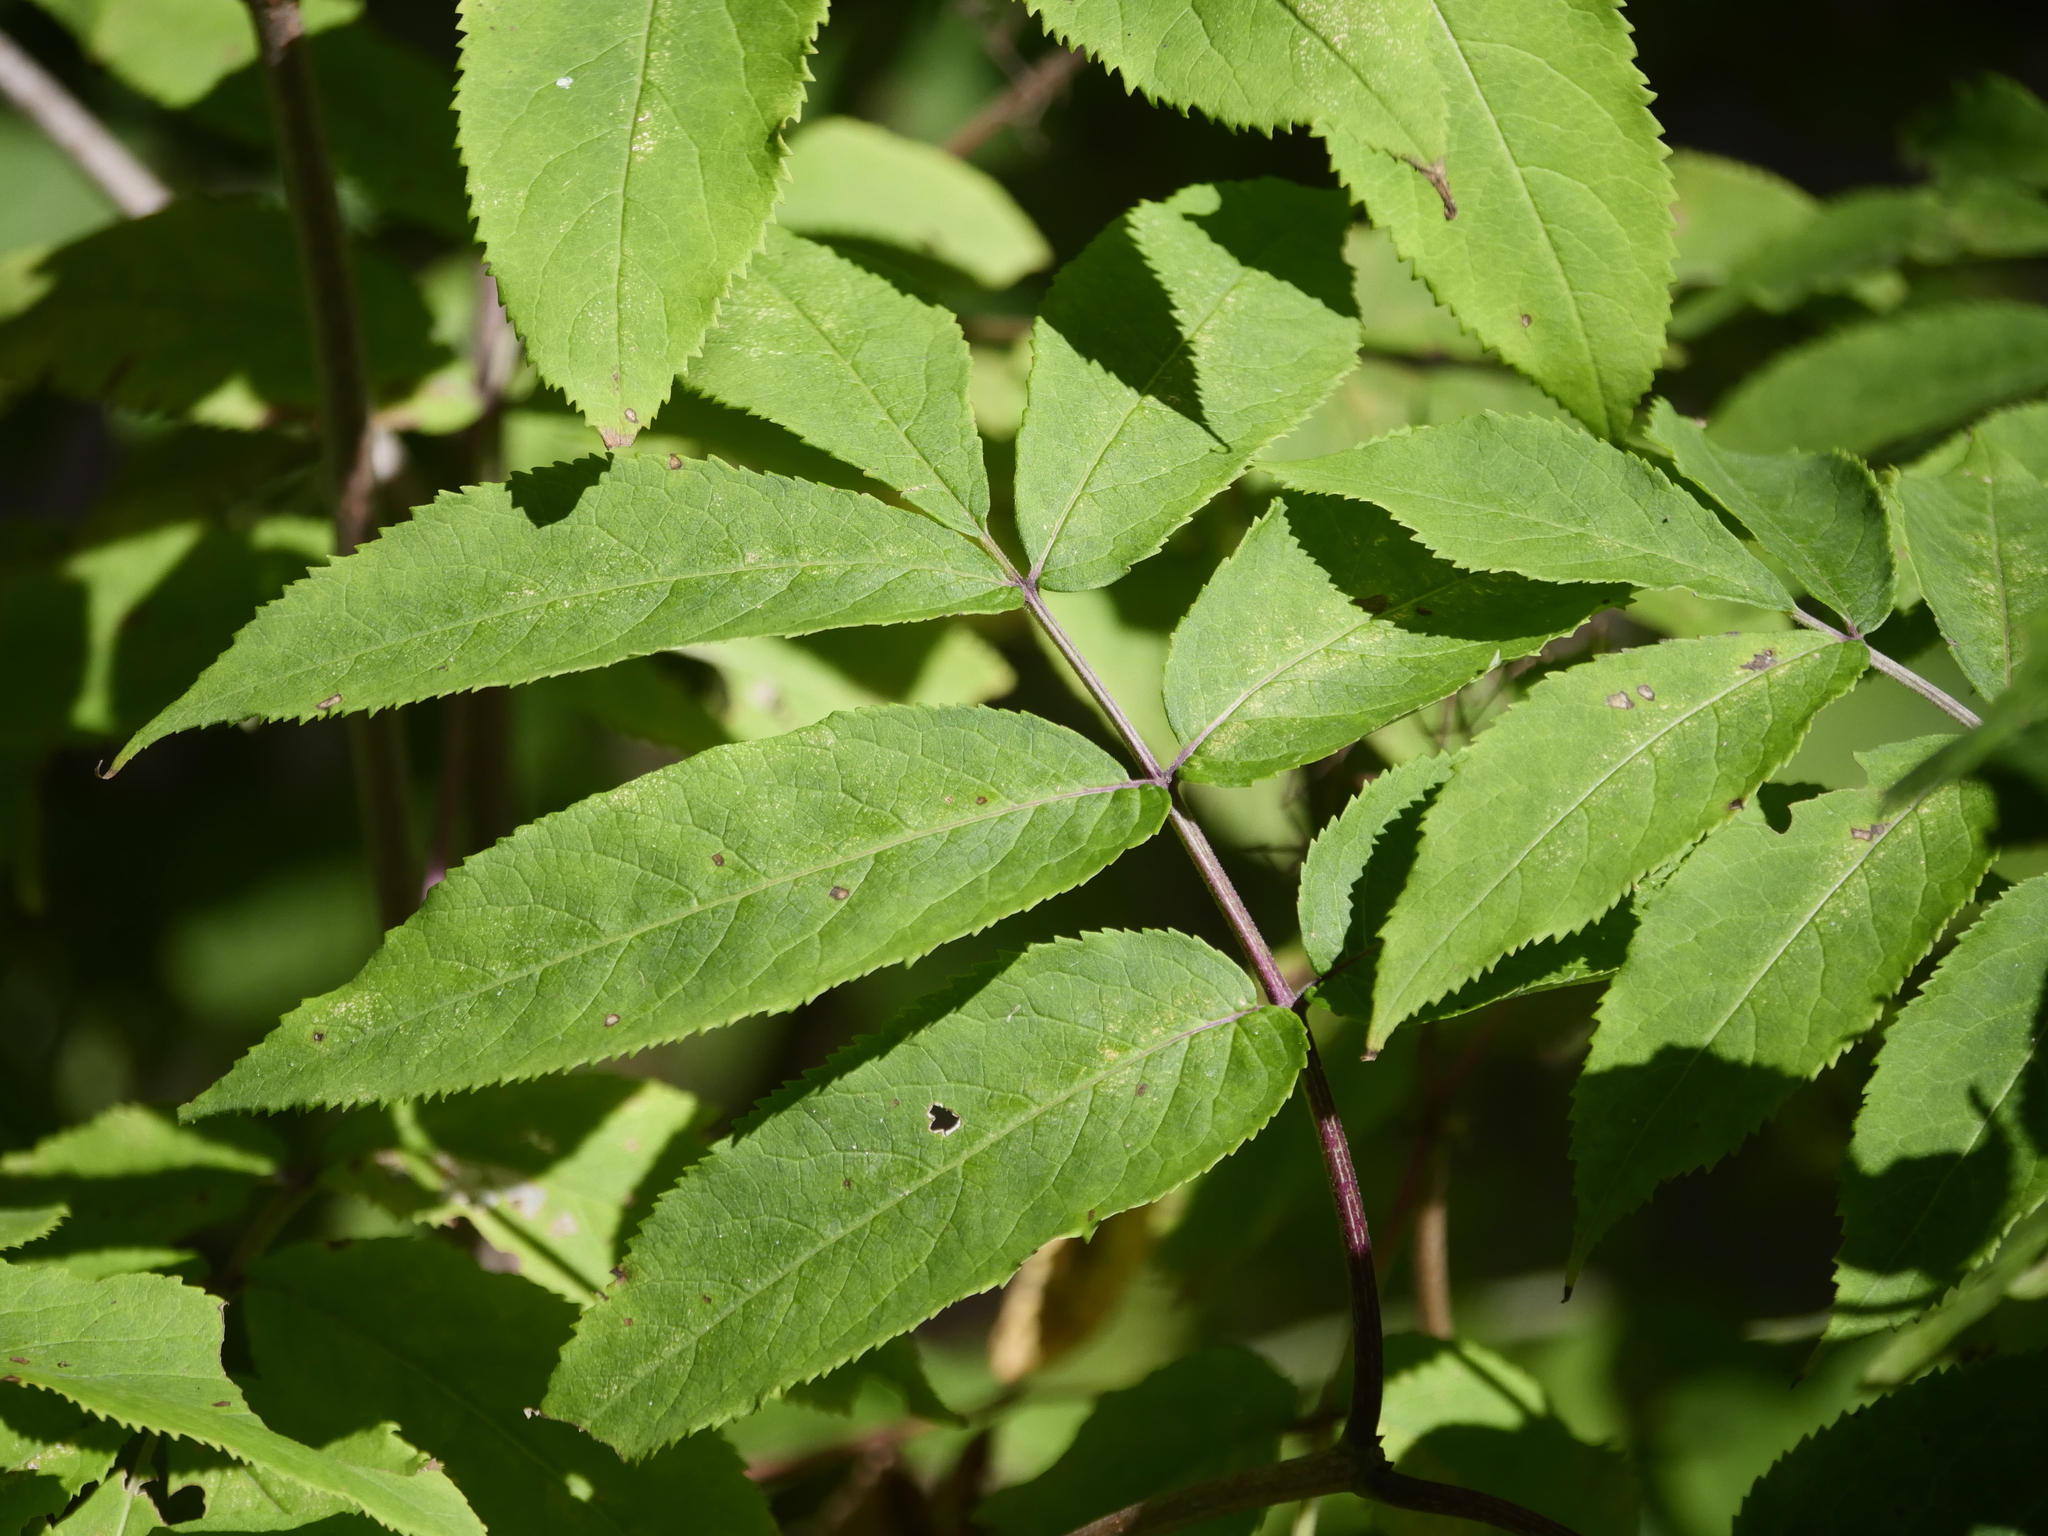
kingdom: Plantae
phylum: Tracheophyta
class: Magnoliopsida
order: Dipsacales
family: Viburnaceae
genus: Sambucus
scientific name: Sambucus racemosa
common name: Red-berried elder
